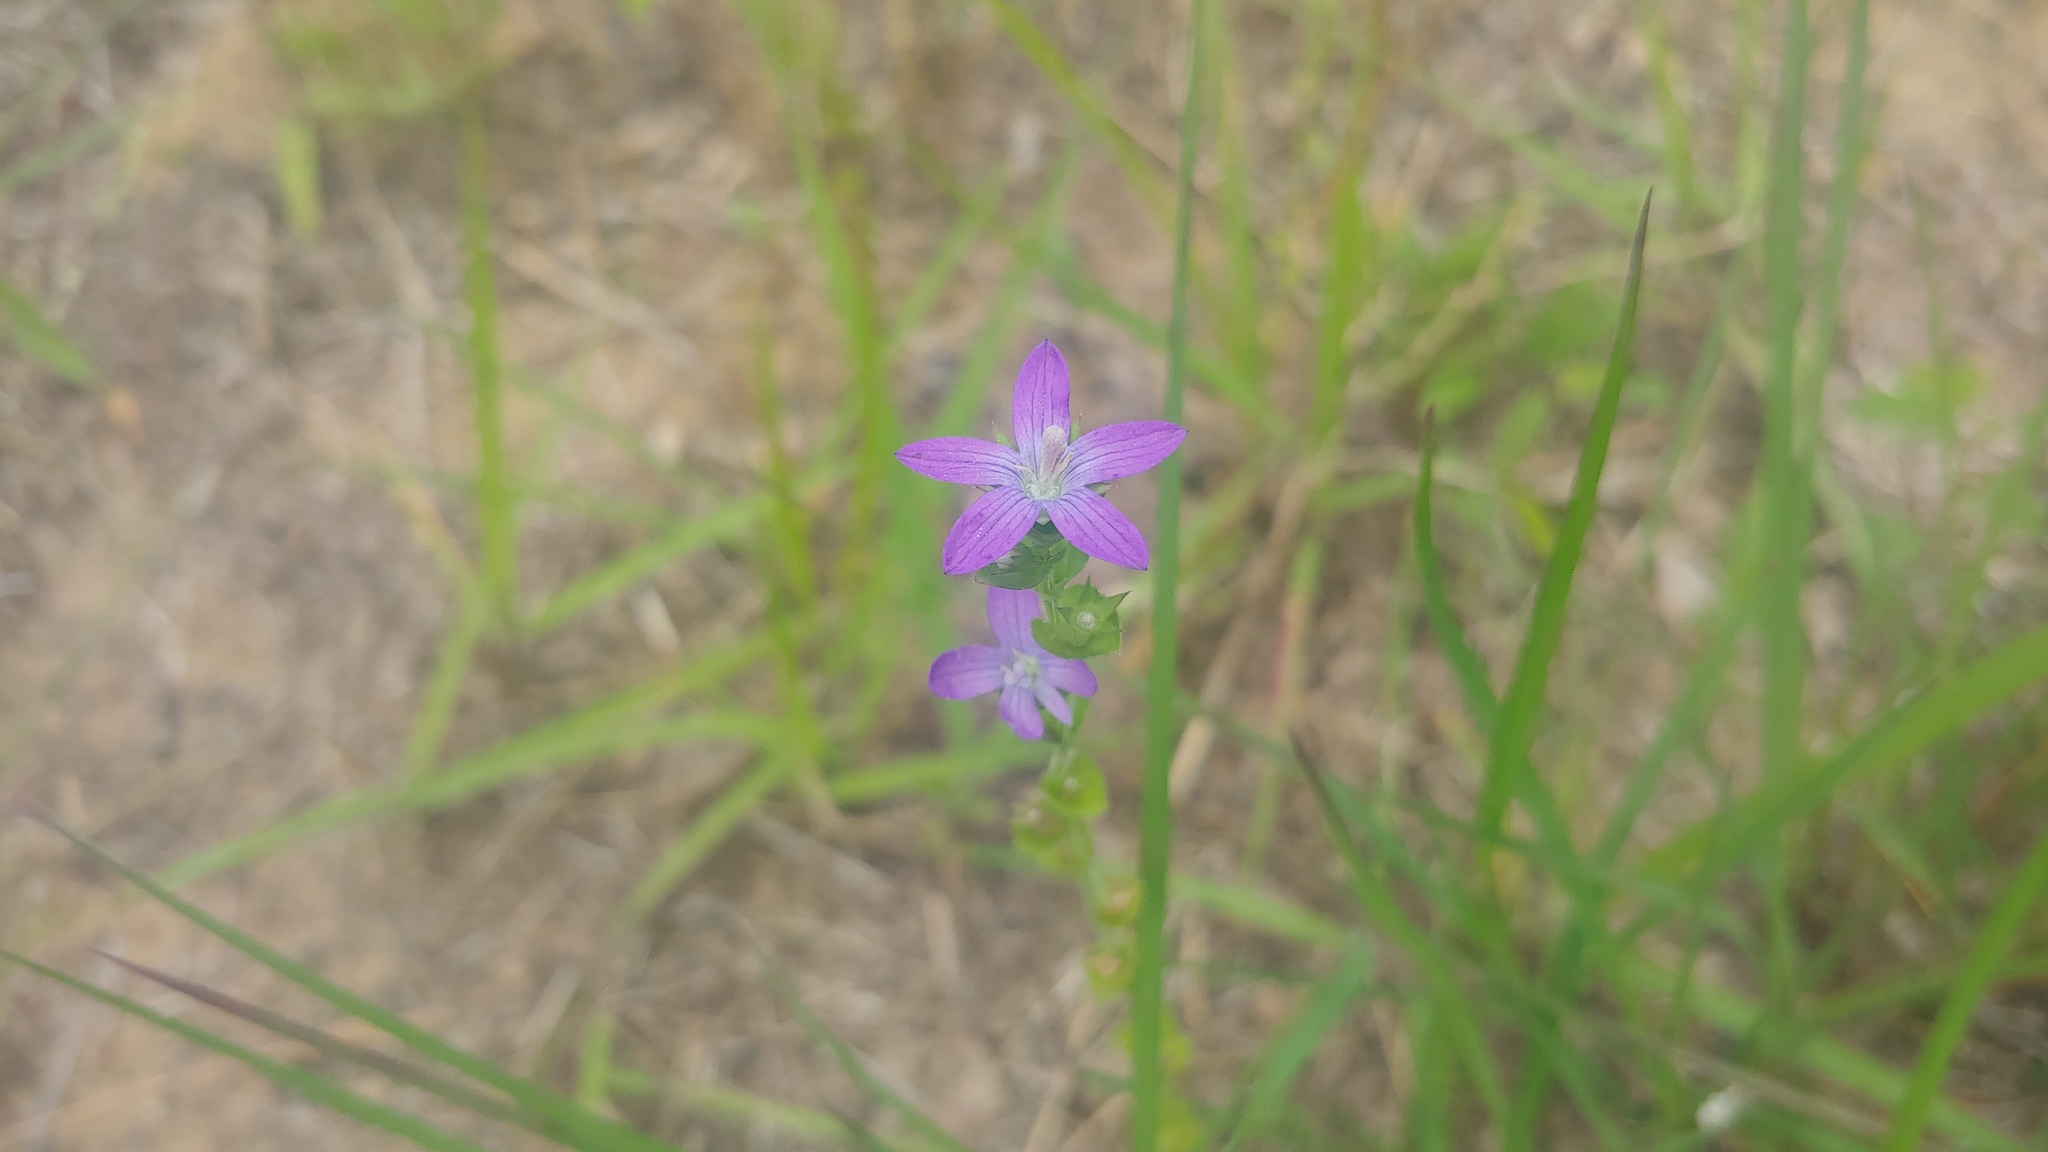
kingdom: Plantae
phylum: Tracheophyta
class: Magnoliopsida
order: Asterales
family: Campanulaceae
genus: Triodanis
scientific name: Triodanis perfoliata
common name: Clasping venus' looking-glass
